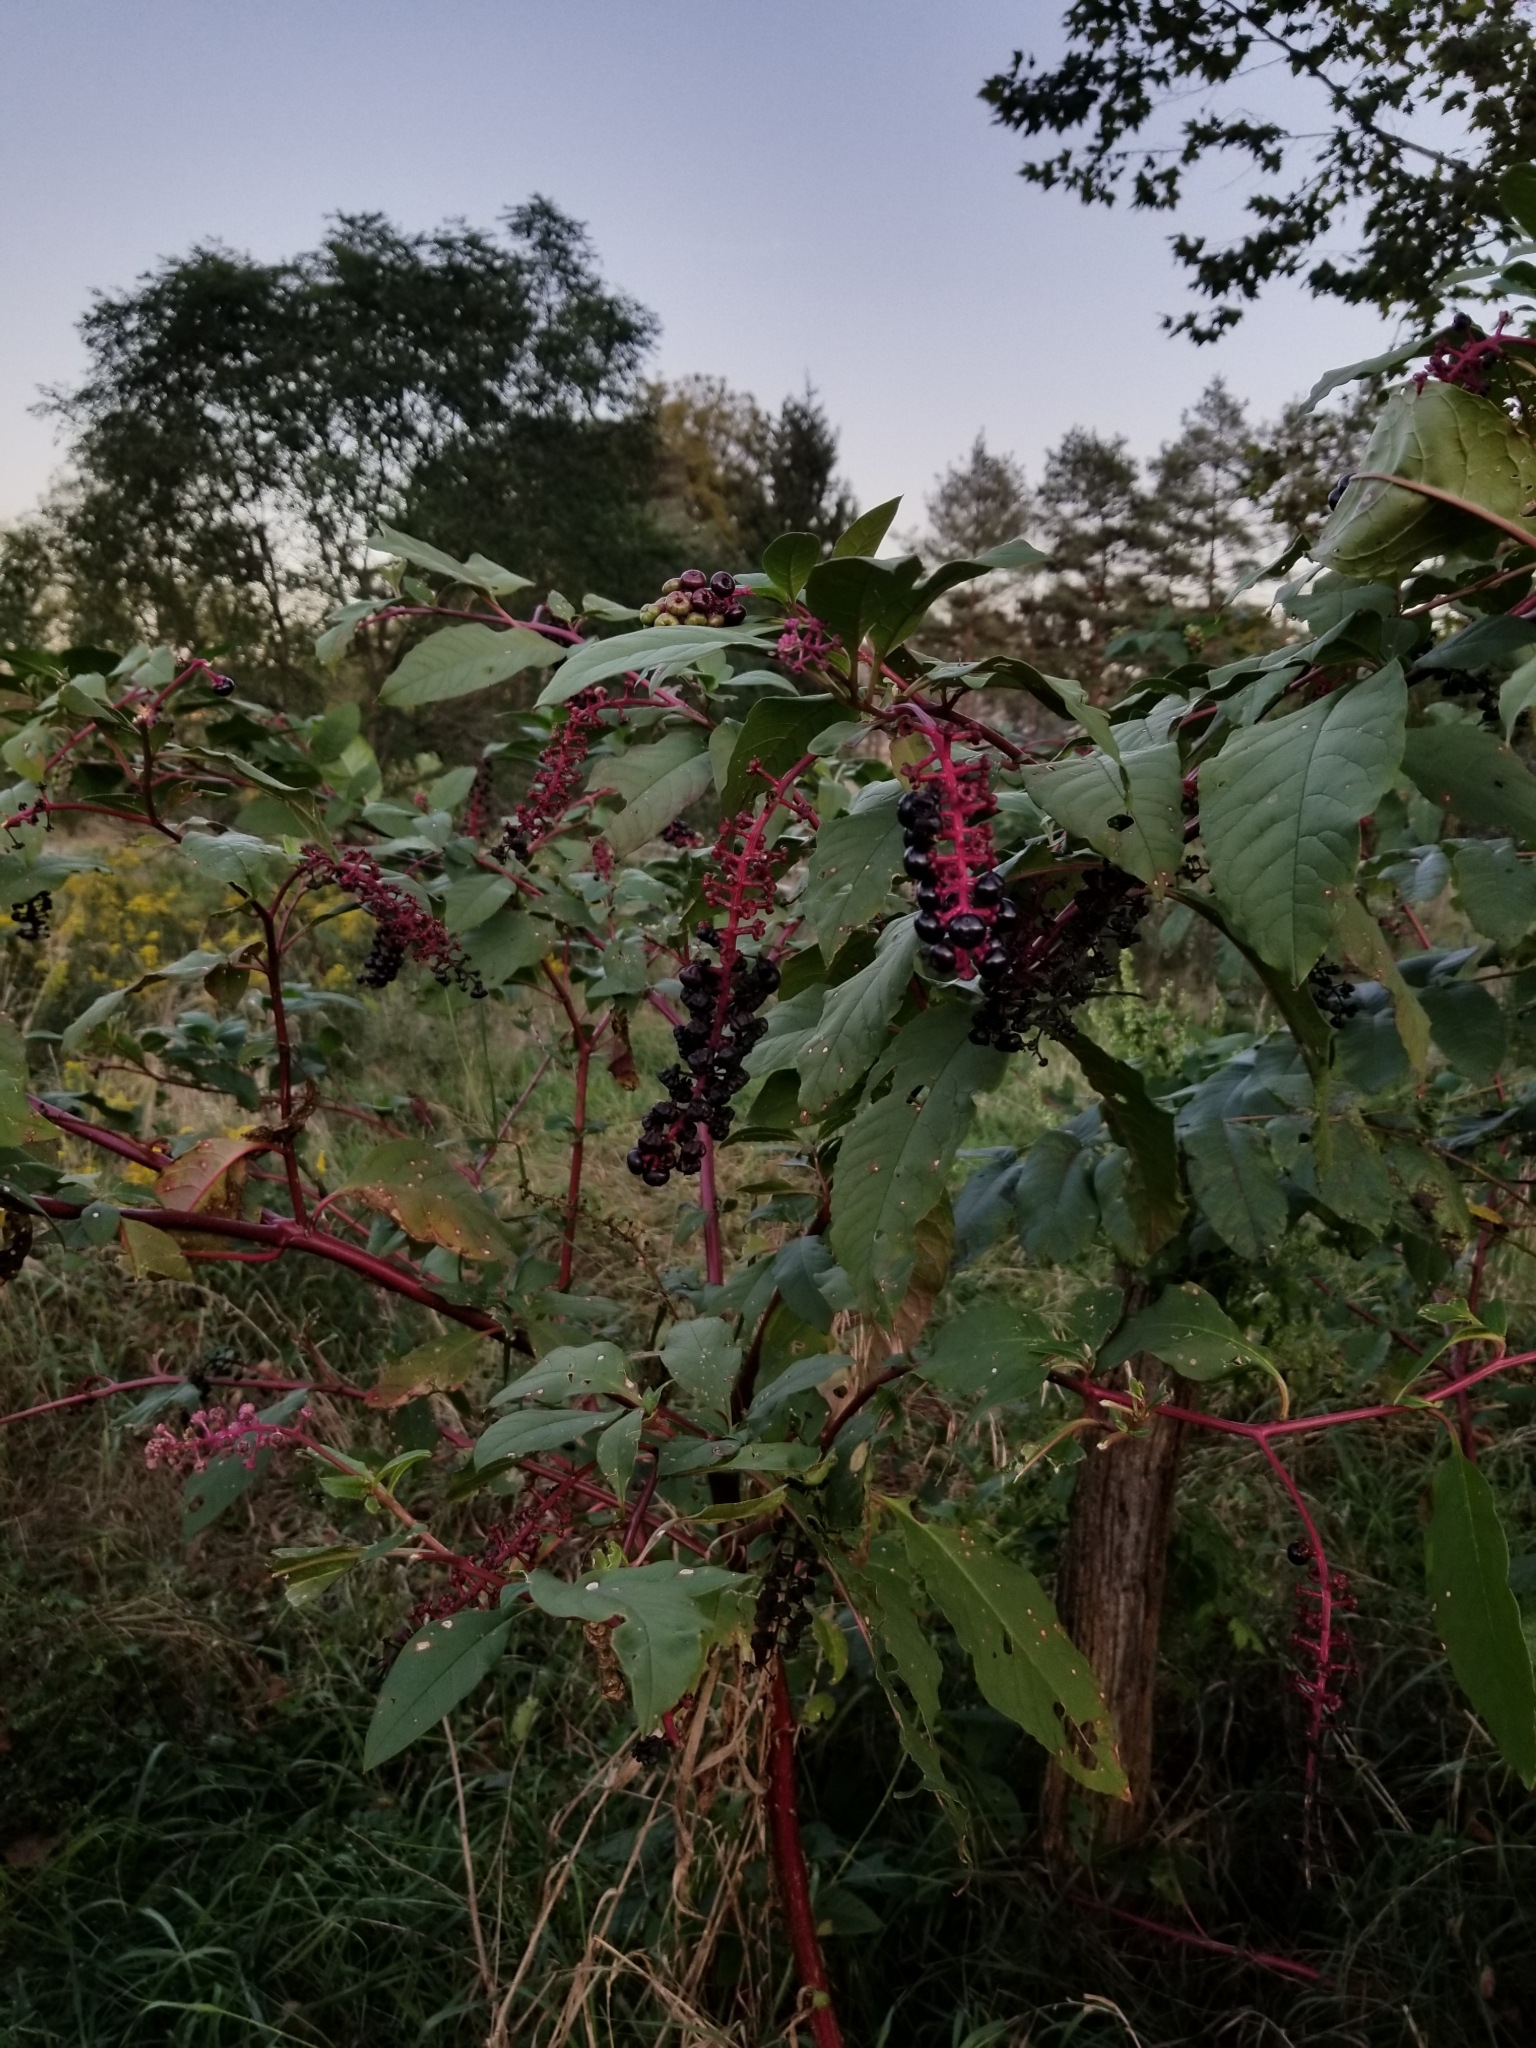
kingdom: Plantae
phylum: Tracheophyta
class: Magnoliopsida
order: Caryophyllales
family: Phytolaccaceae
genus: Phytolacca
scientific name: Phytolacca americana
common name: American pokeweed
